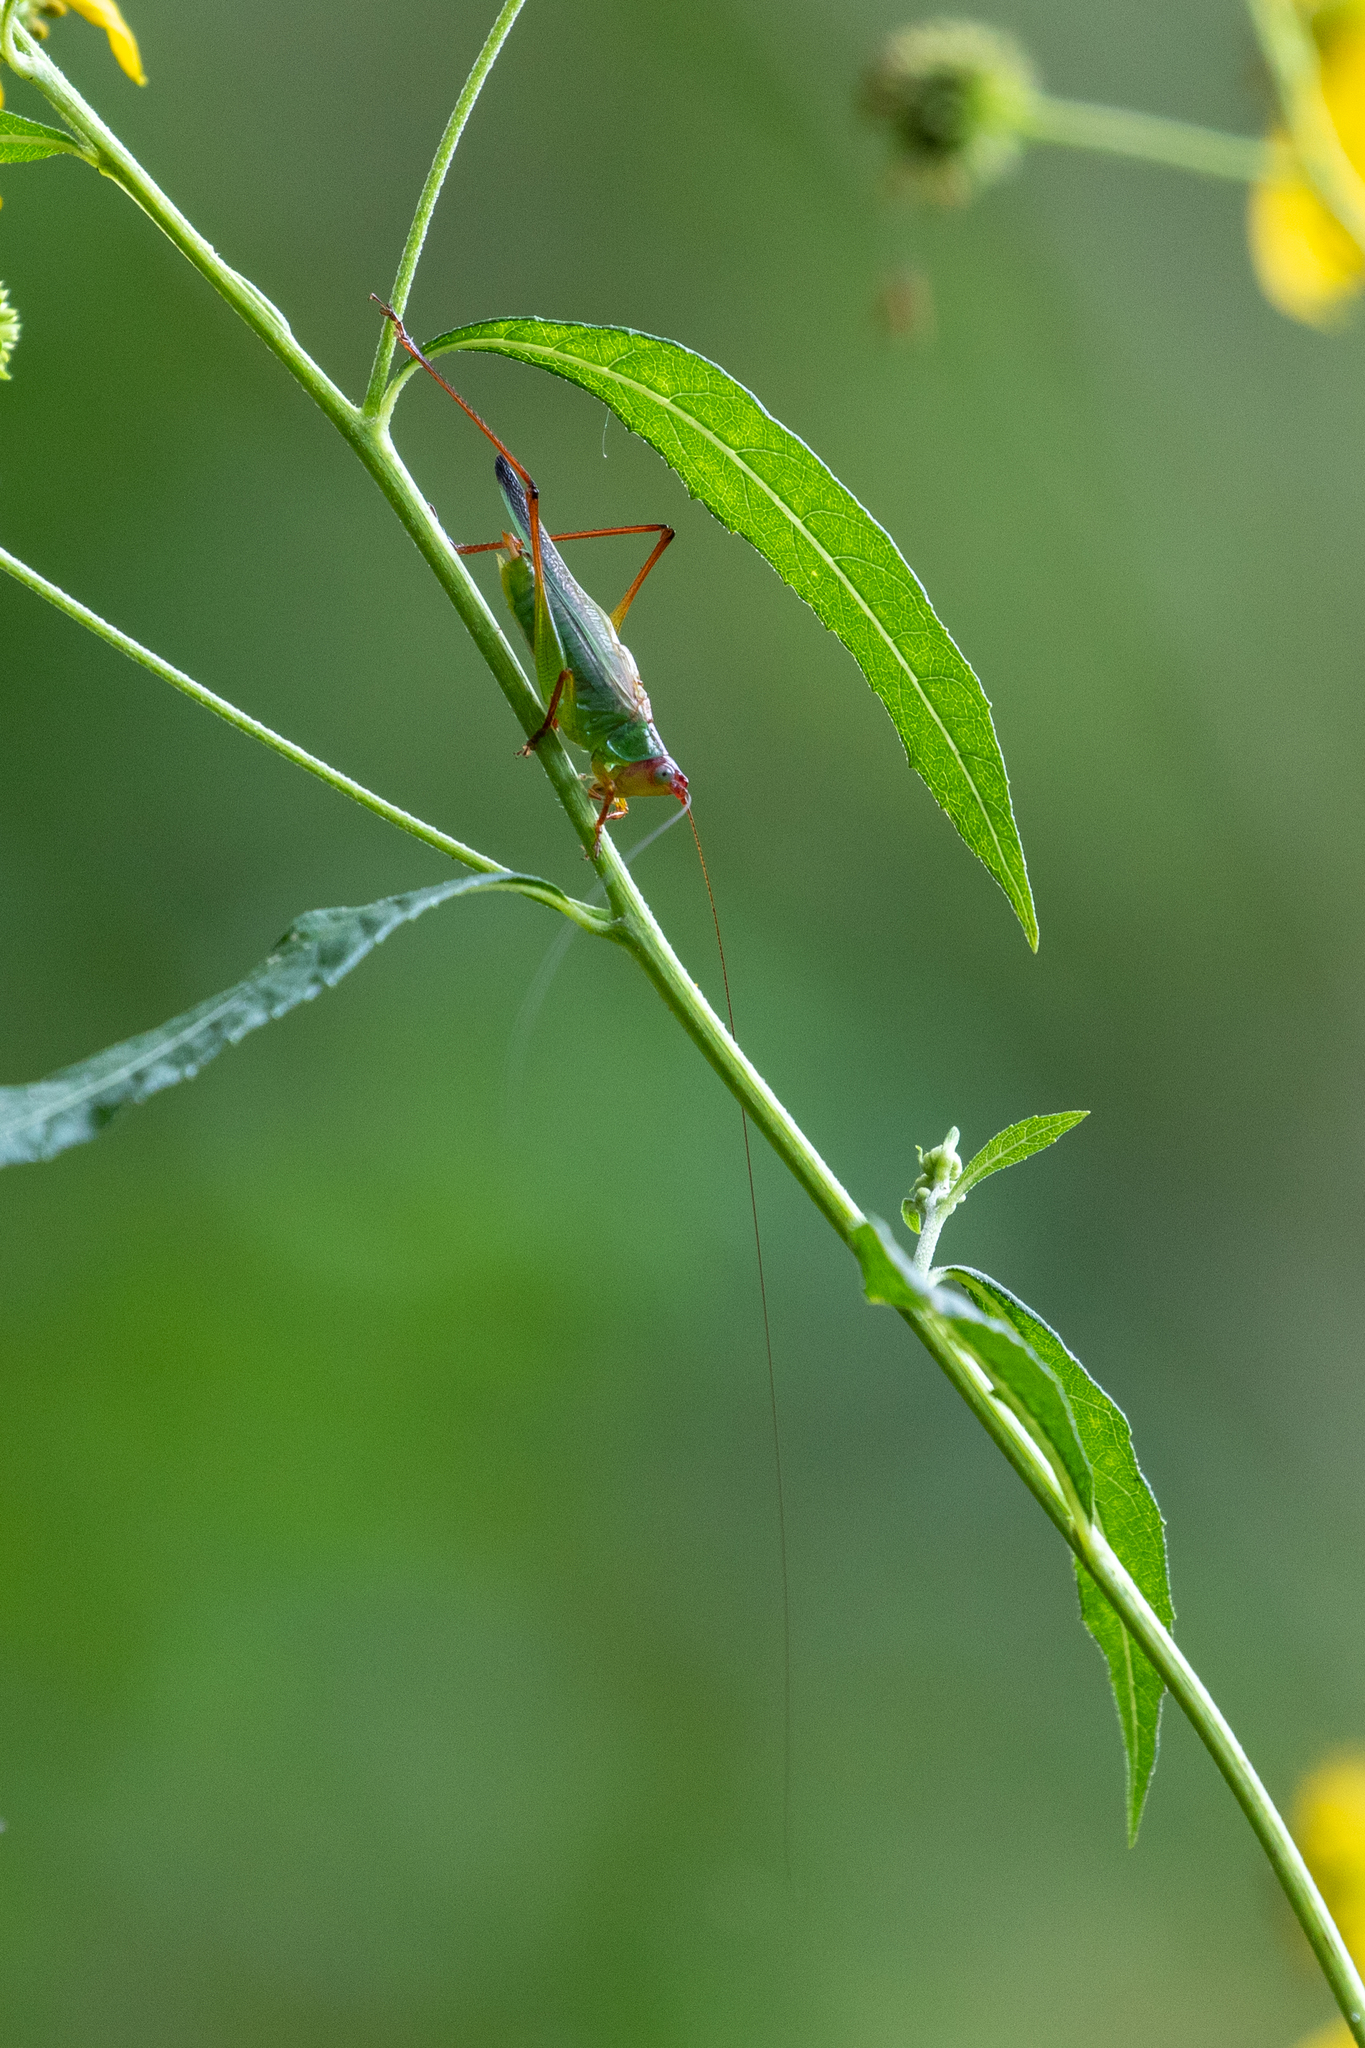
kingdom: Animalia
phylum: Arthropoda
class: Insecta
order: Orthoptera
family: Tettigoniidae
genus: Orchelimum
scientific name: Orchelimum pulchellum
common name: Handsome meadow katydid
